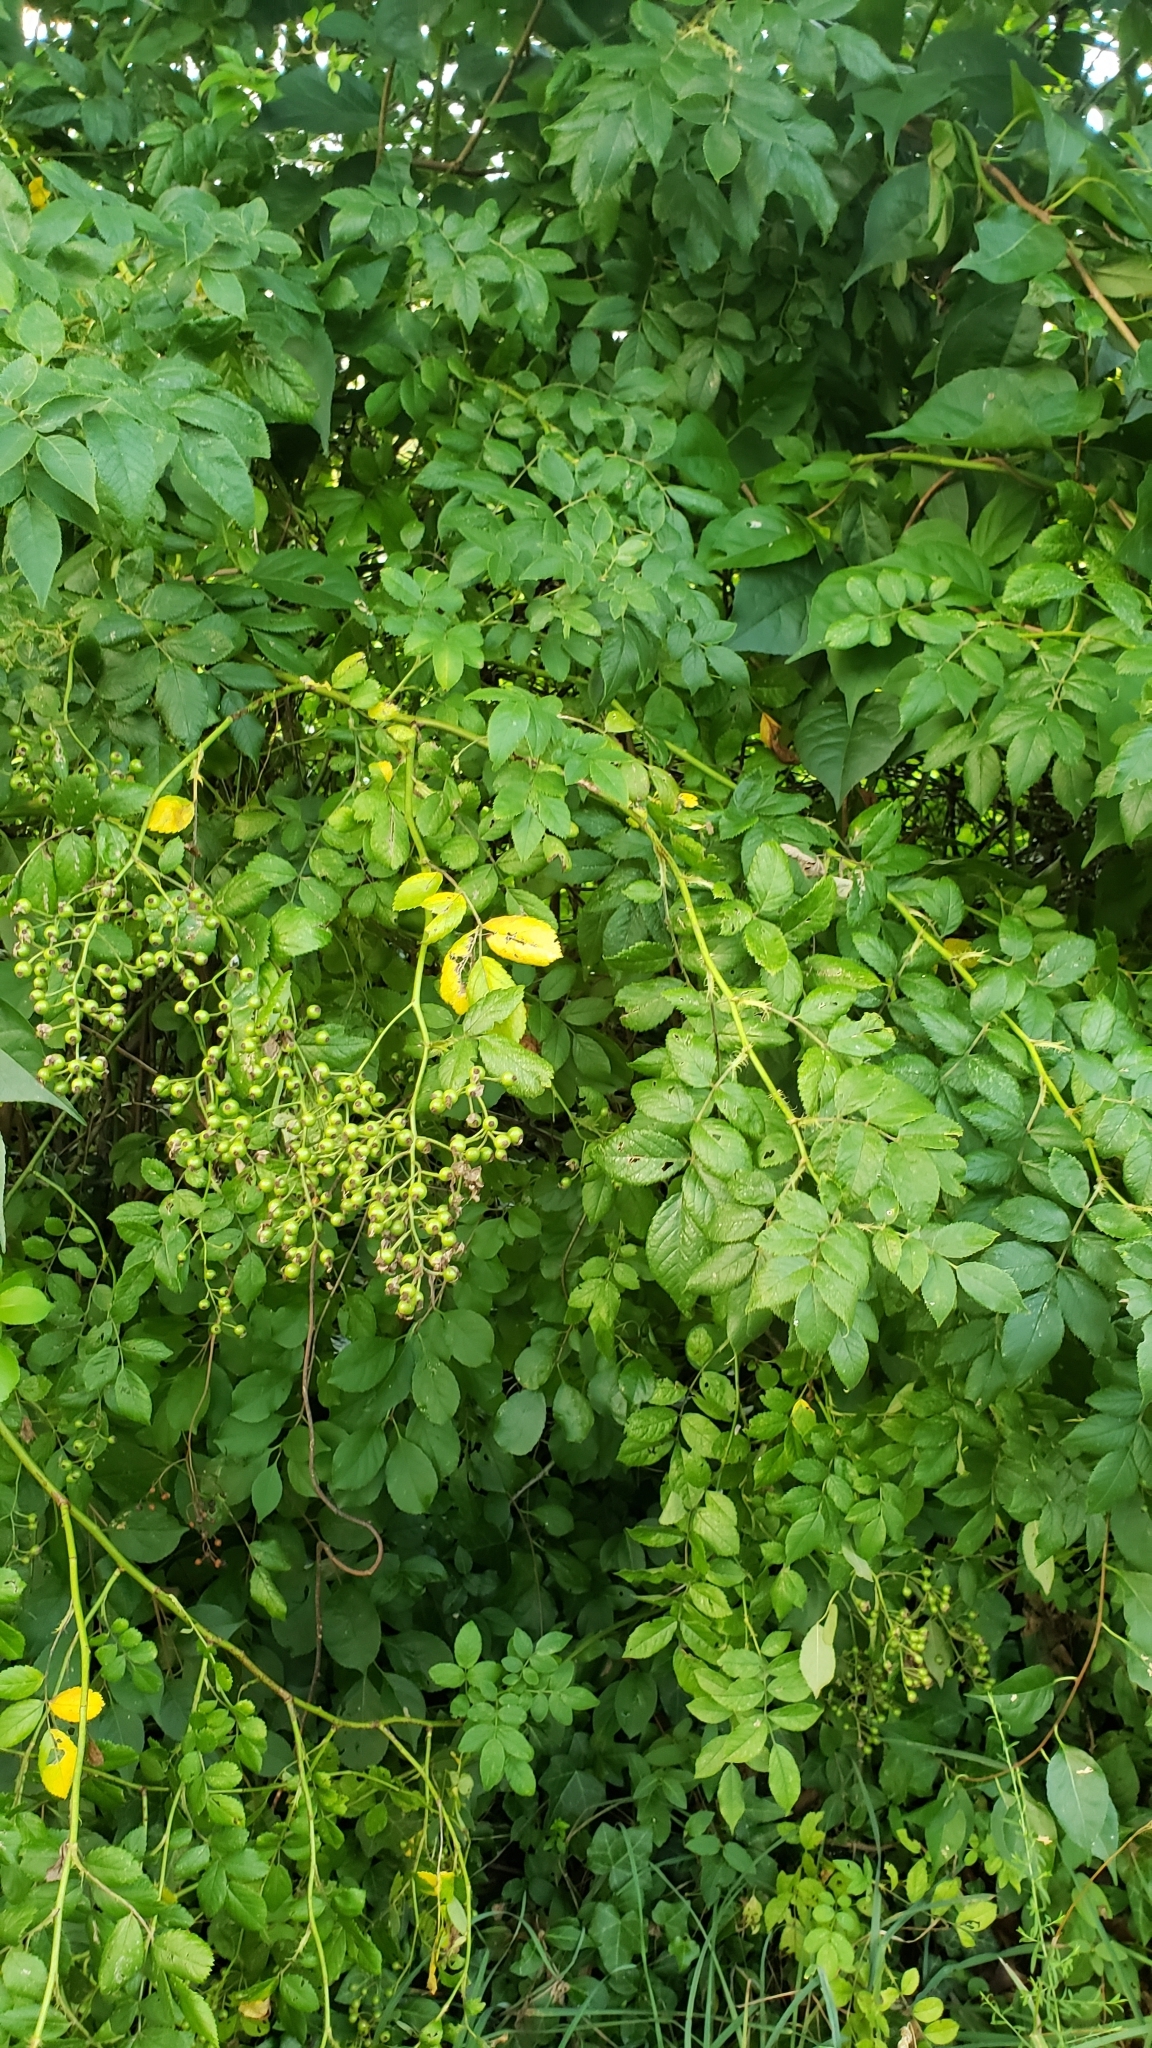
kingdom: Plantae
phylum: Tracheophyta
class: Magnoliopsida
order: Rosales
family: Rosaceae
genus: Rosa
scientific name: Rosa multiflora
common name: Multiflora rose
